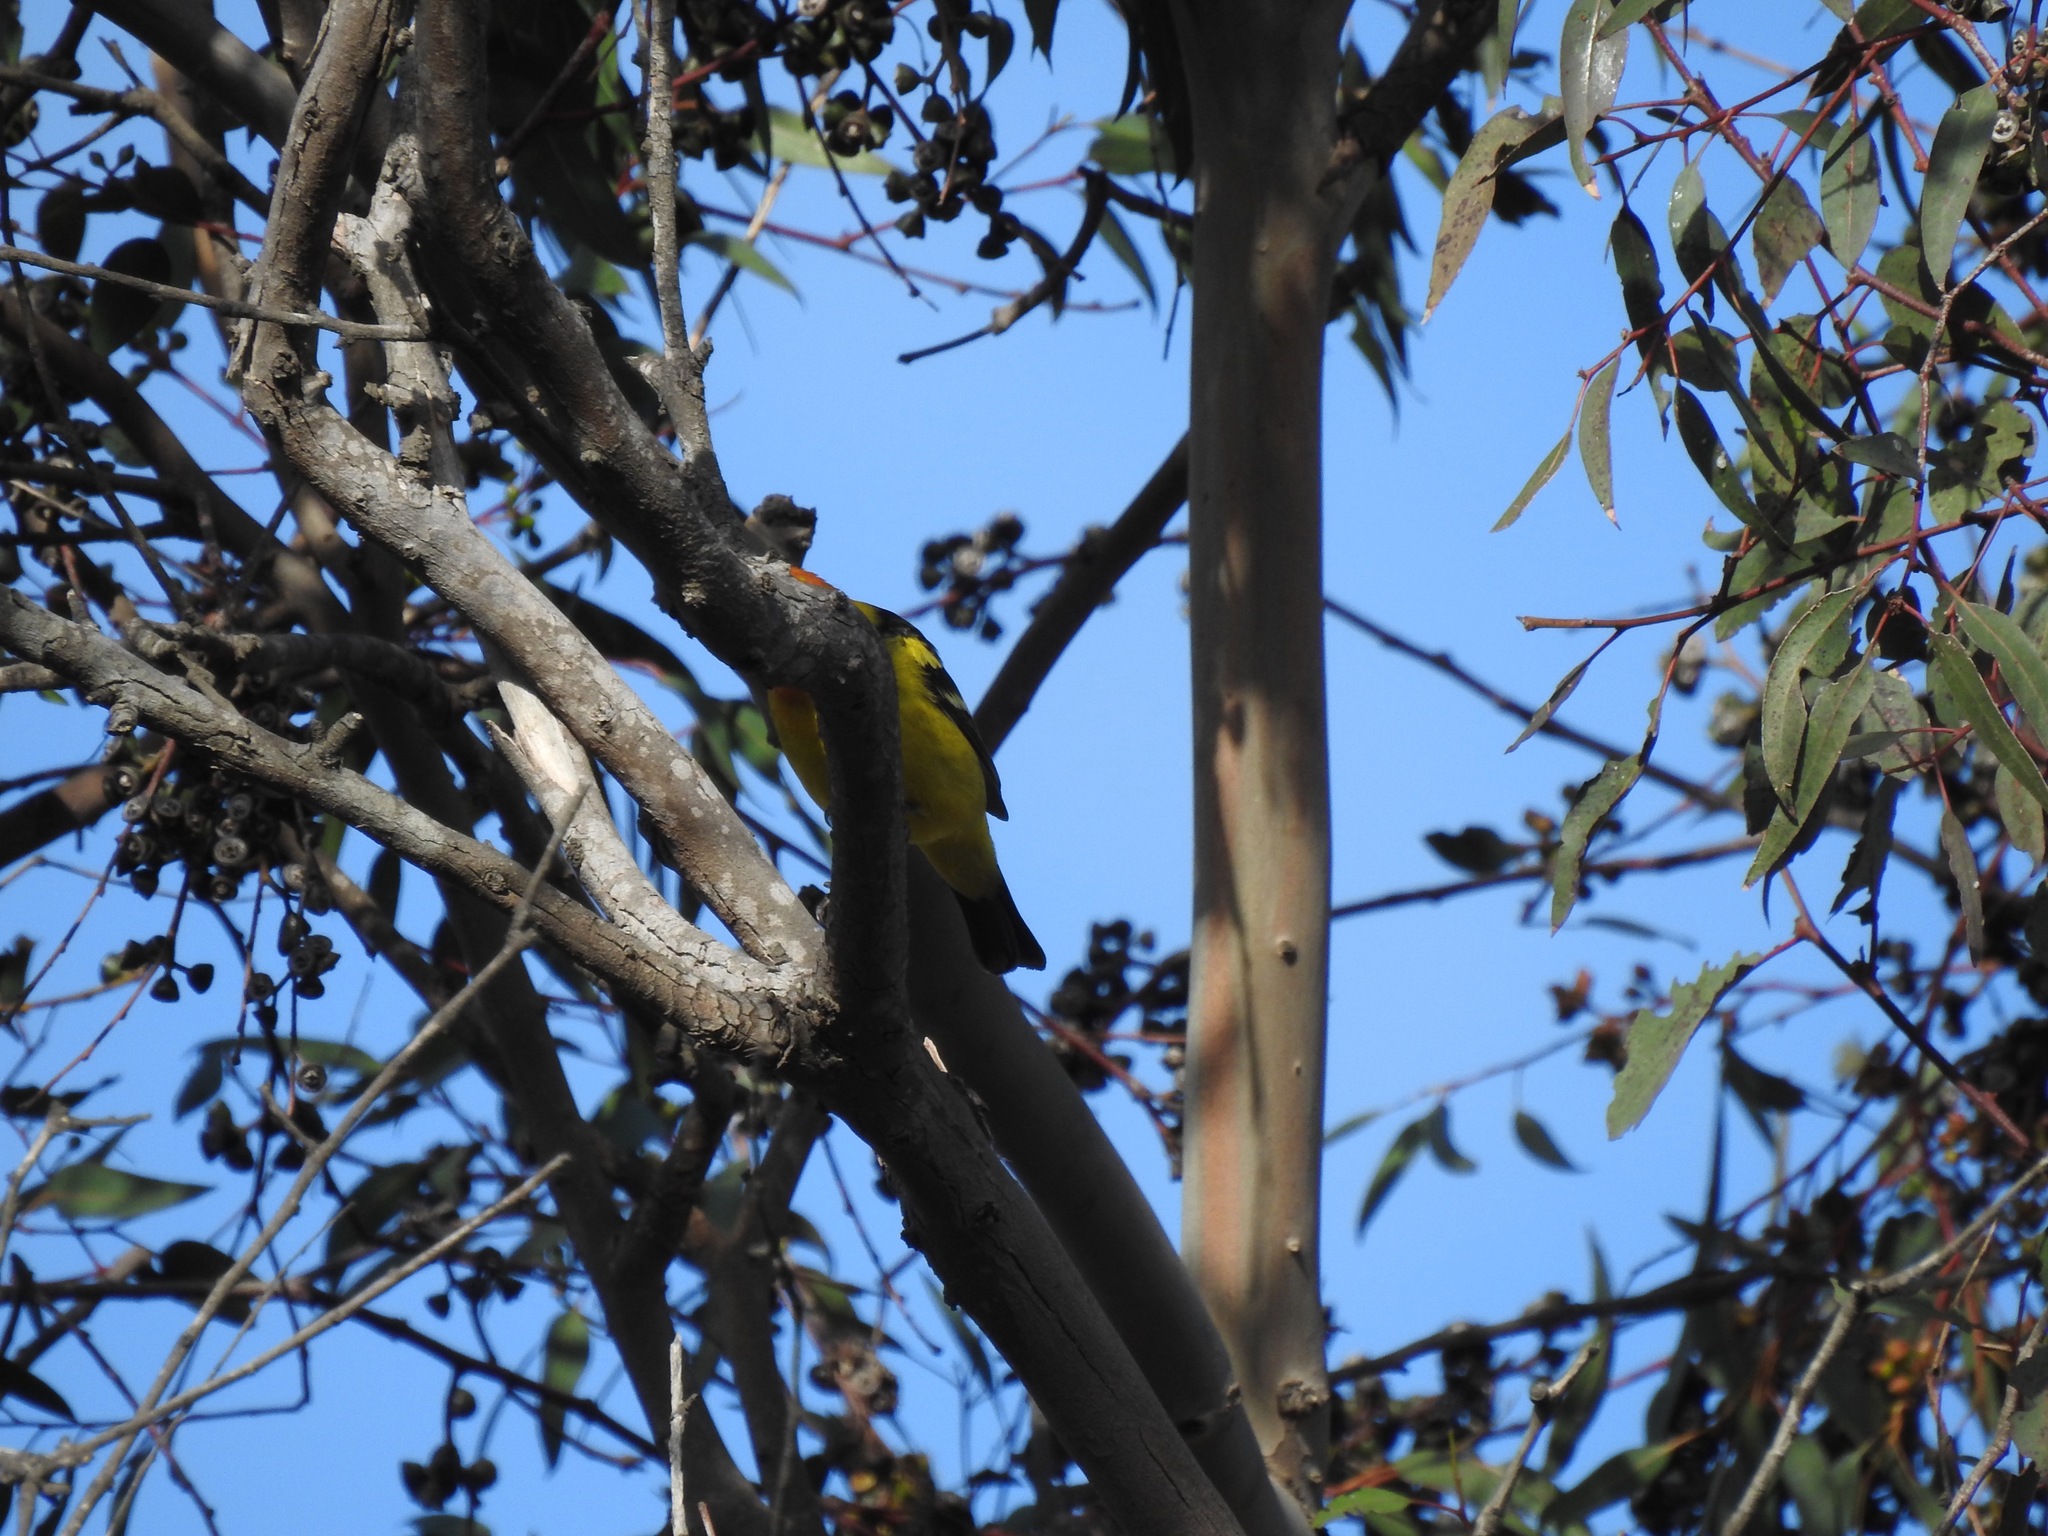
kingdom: Animalia
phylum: Chordata
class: Aves
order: Passeriformes
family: Cardinalidae
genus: Piranga
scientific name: Piranga ludoviciana
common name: Western tanager
